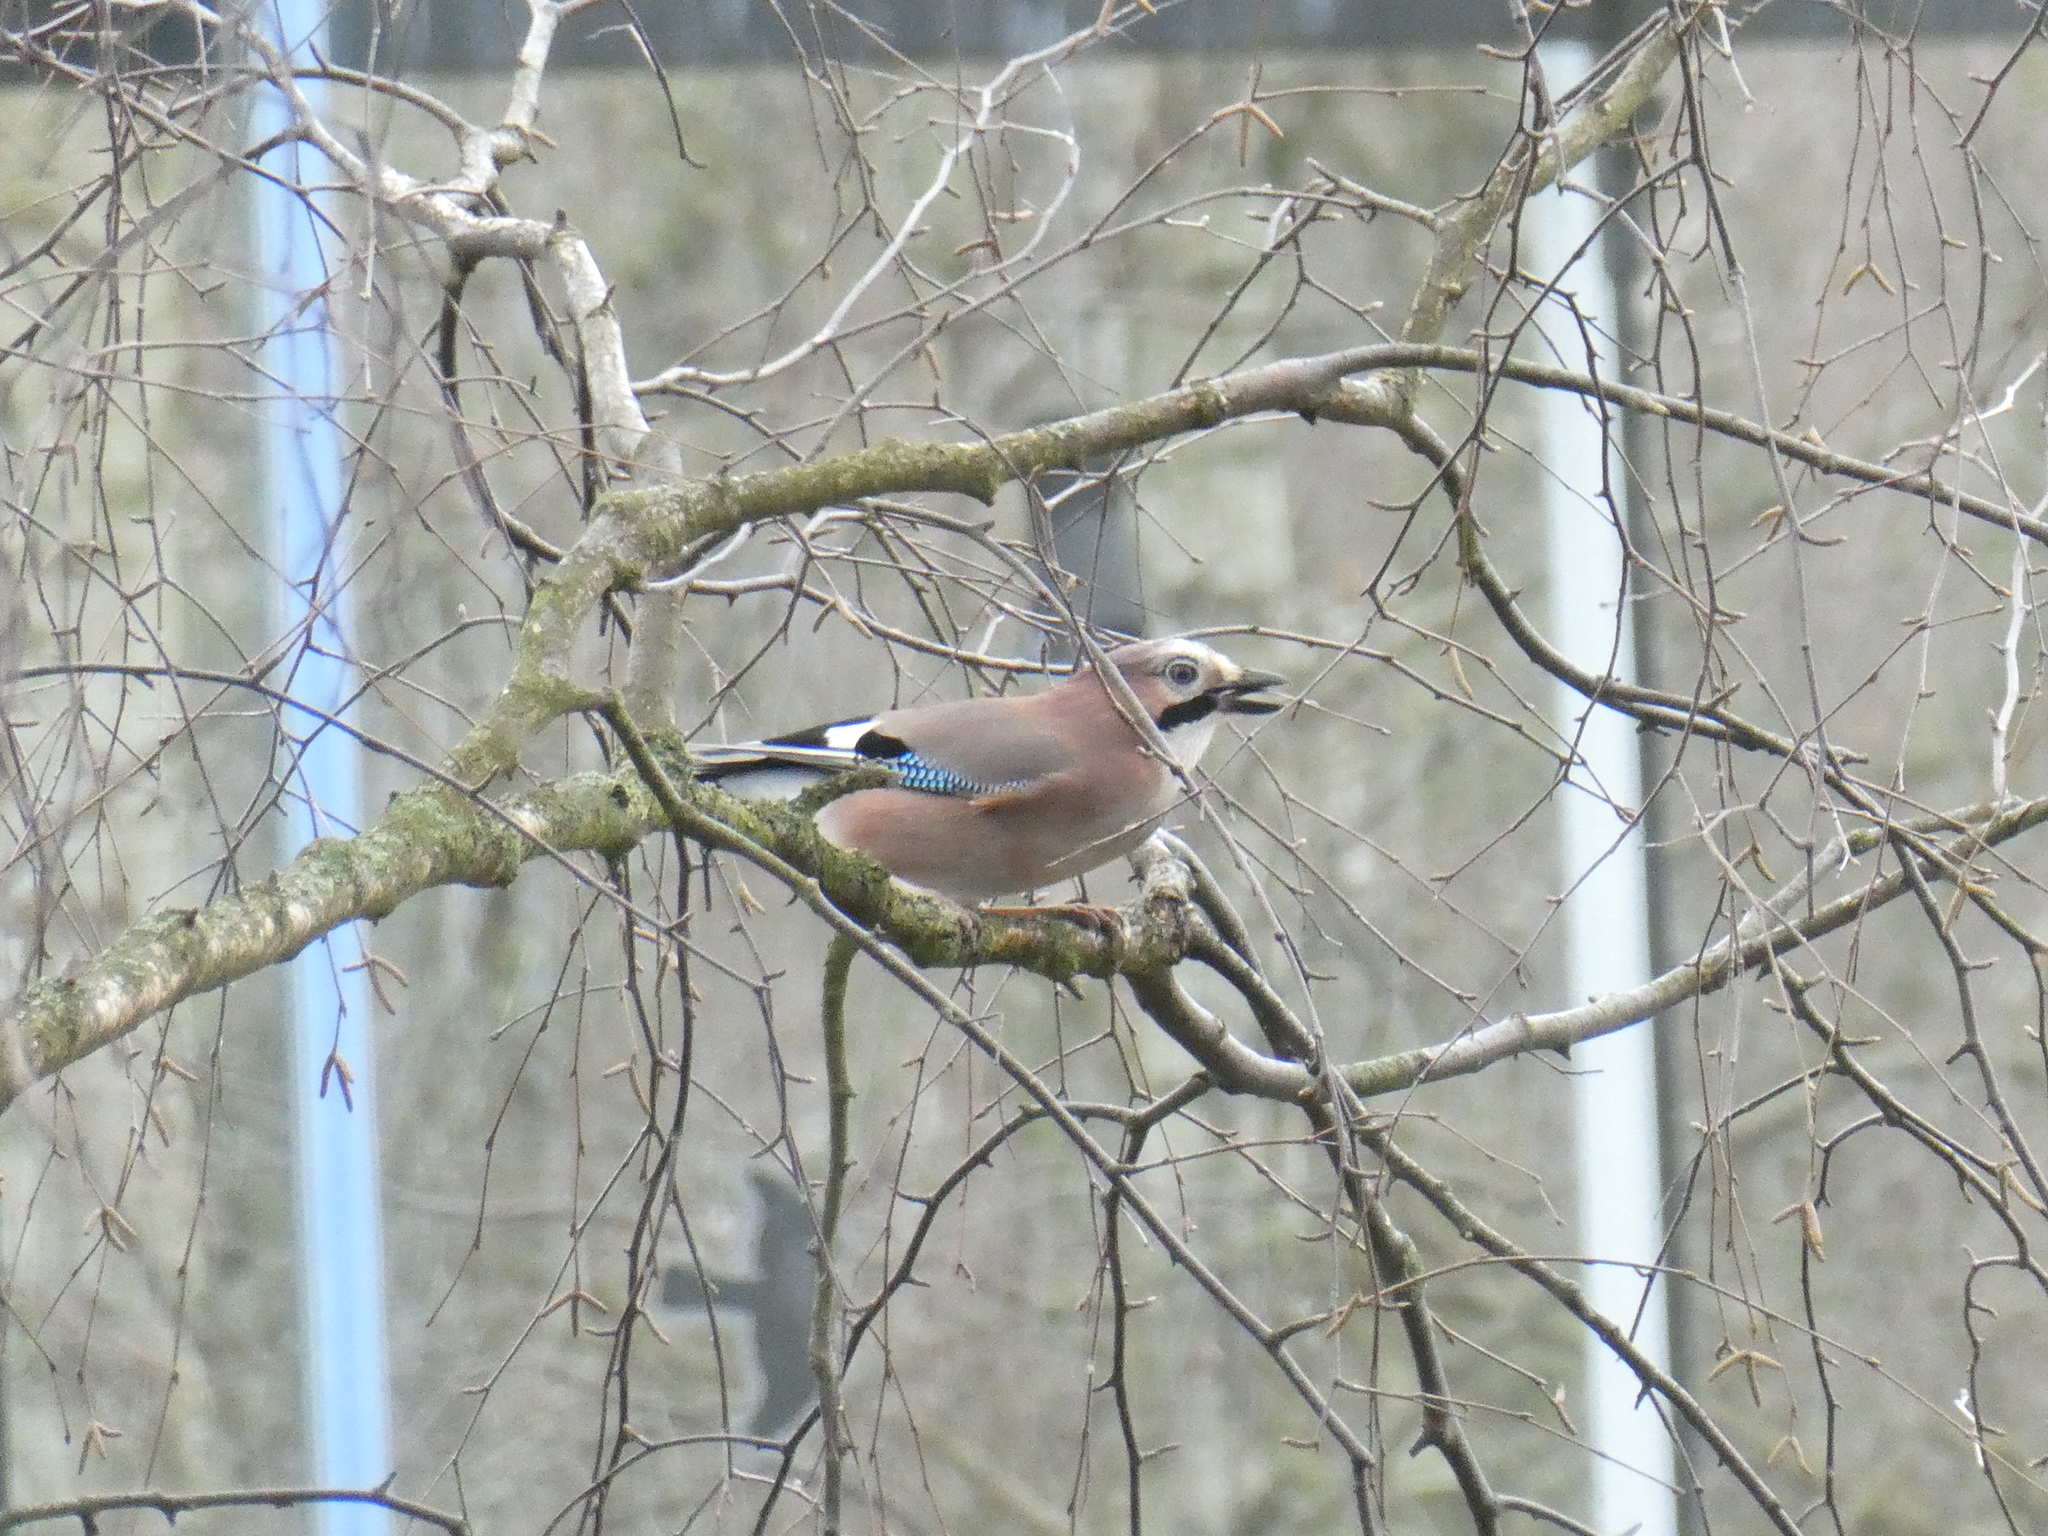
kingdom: Animalia
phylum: Chordata
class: Aves
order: Passeriformes
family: Corvidae
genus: Garrulus
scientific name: Garrulus glandarius
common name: Eurasian jay
